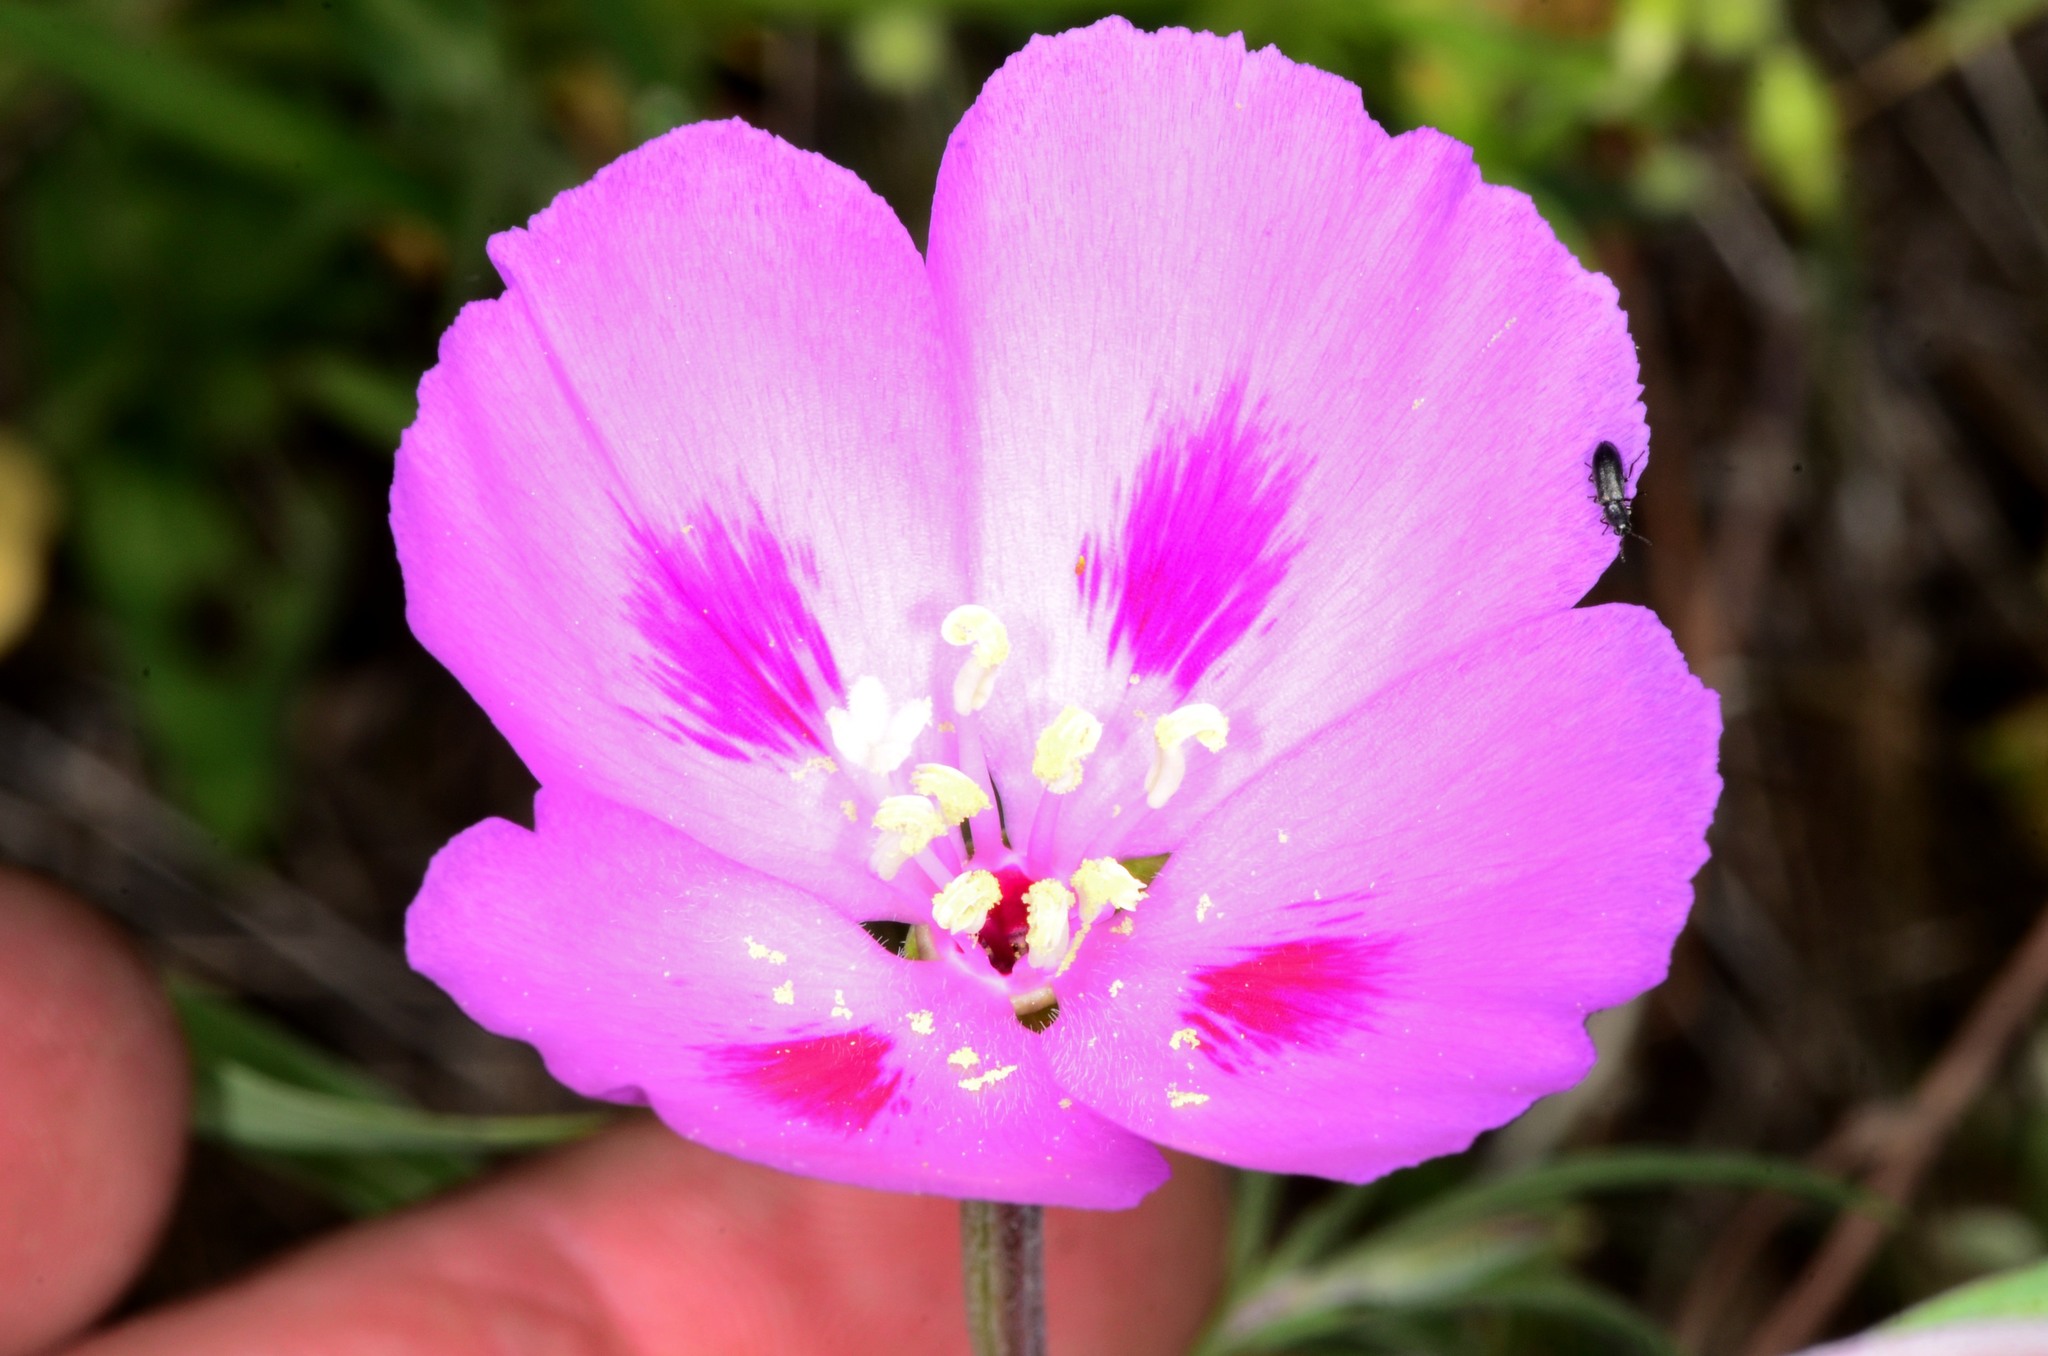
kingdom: Plantae
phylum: Tracheophyta
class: Magnoliopsida
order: Myrtales
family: Onagraceae
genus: Clarkia
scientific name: Clarkia gracilis
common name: Graceful clarkia
